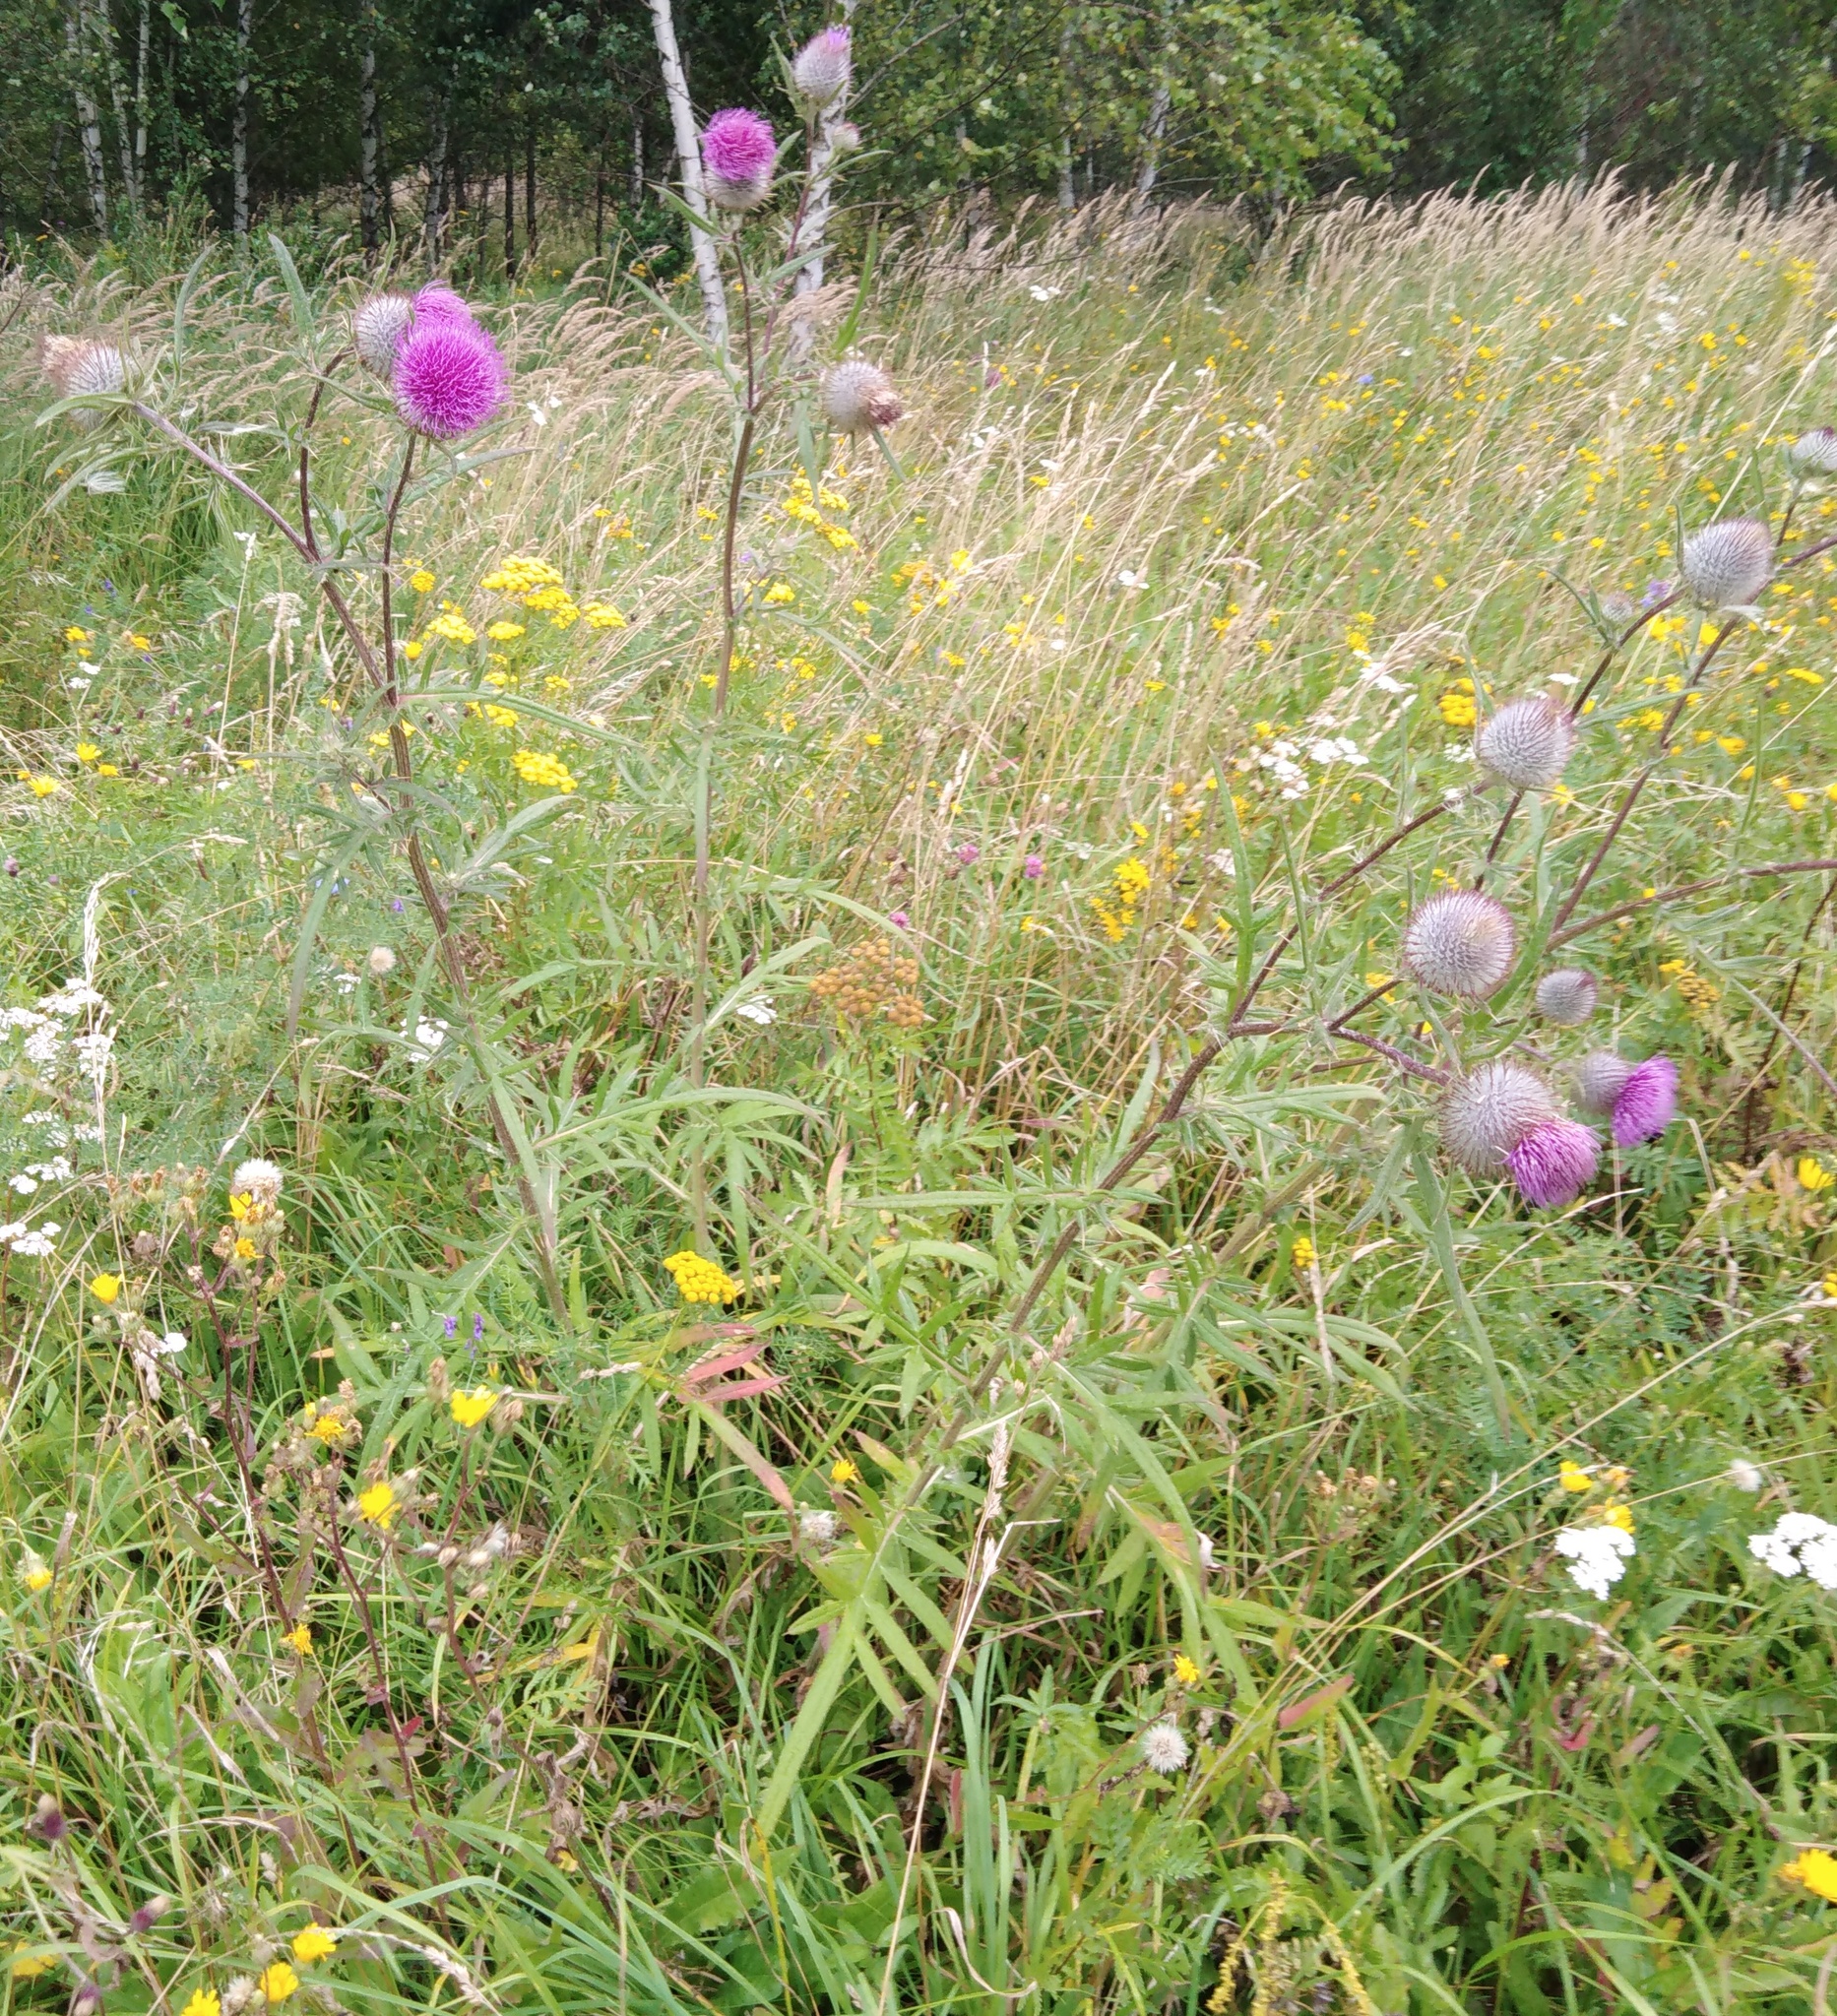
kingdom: Plantae
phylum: Tracheophyta
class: Magnoliopsida
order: Asterales
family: Asteraceae
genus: Lophiolepis
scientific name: Lophiolepis decussata
